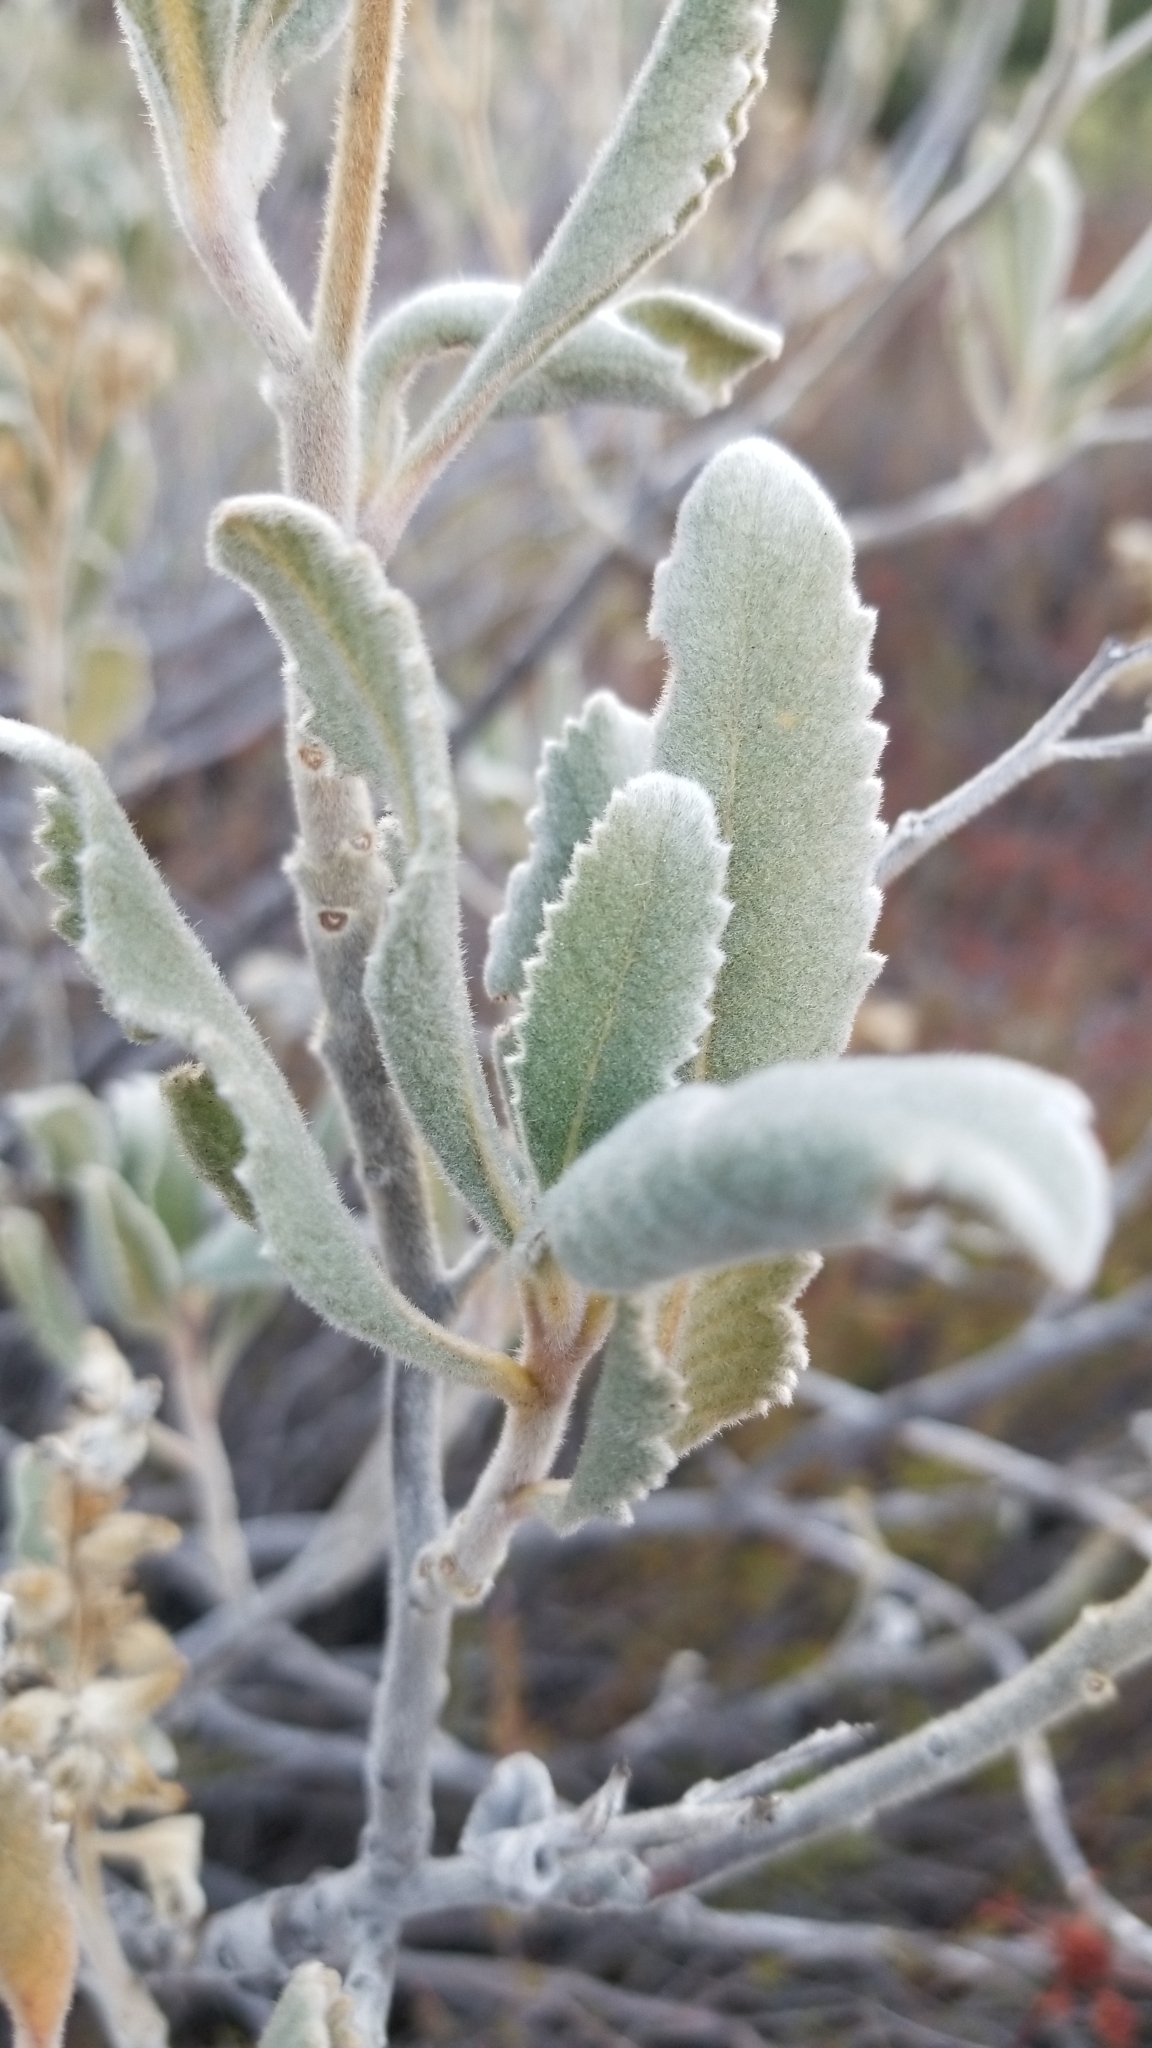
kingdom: Plantae
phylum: Tracheophyta
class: Magnoliopsida
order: Boraginales
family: Namaceae
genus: Eriodictyon
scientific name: Eriodictyon crassifolium
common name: Thick-leaf yerba-santa
